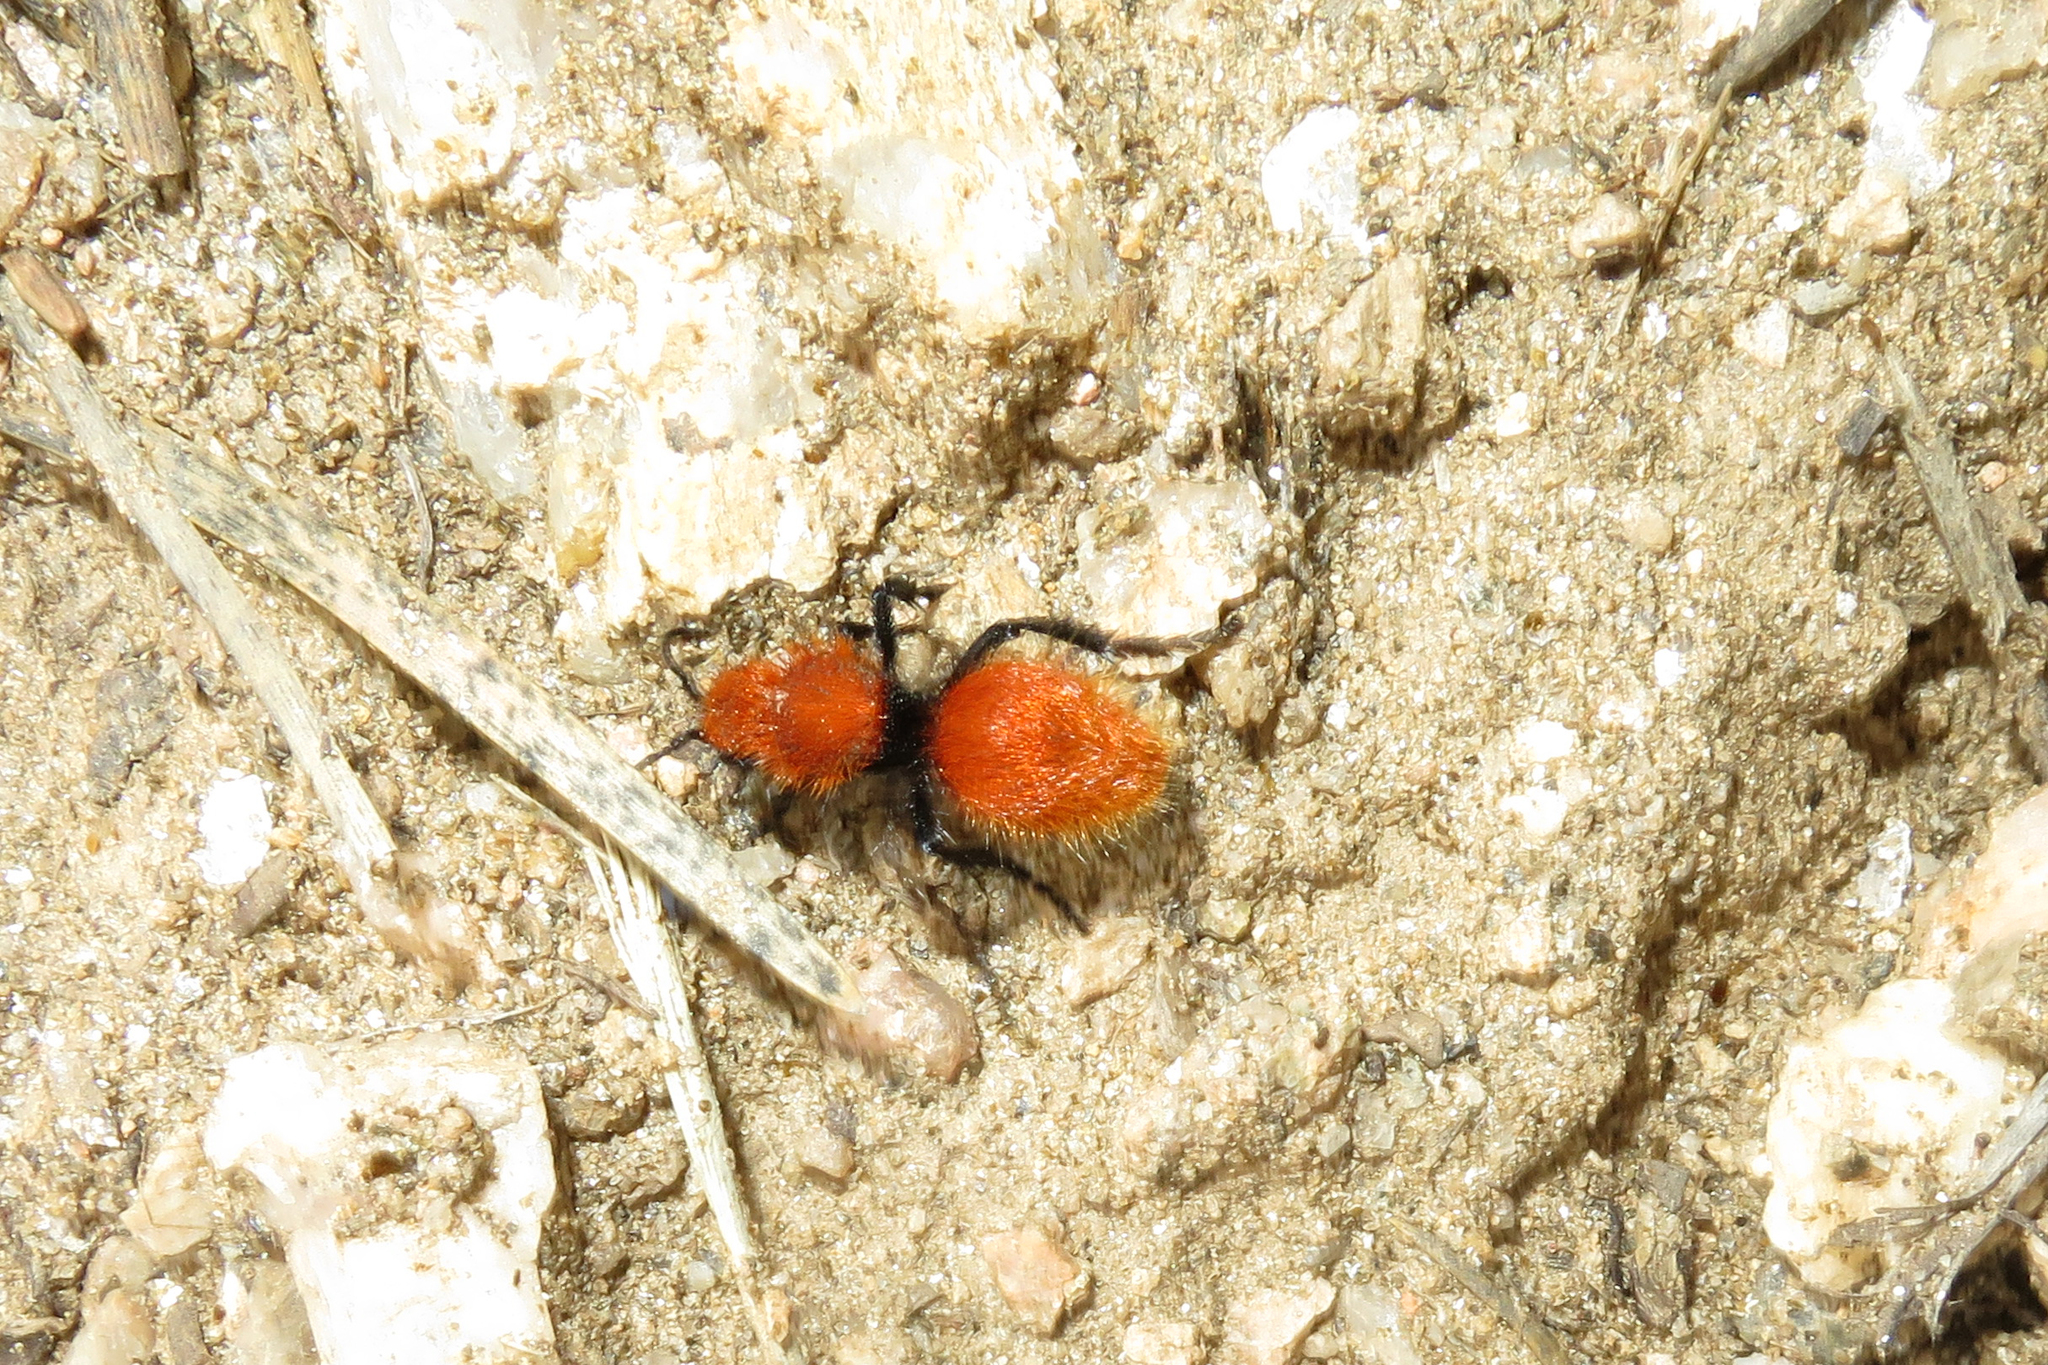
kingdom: Animalia
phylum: Arthropoda
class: Insecta
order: Hymenoptera
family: Mutillidae
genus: Dasymutilla
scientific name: Dasymutilla vestita
